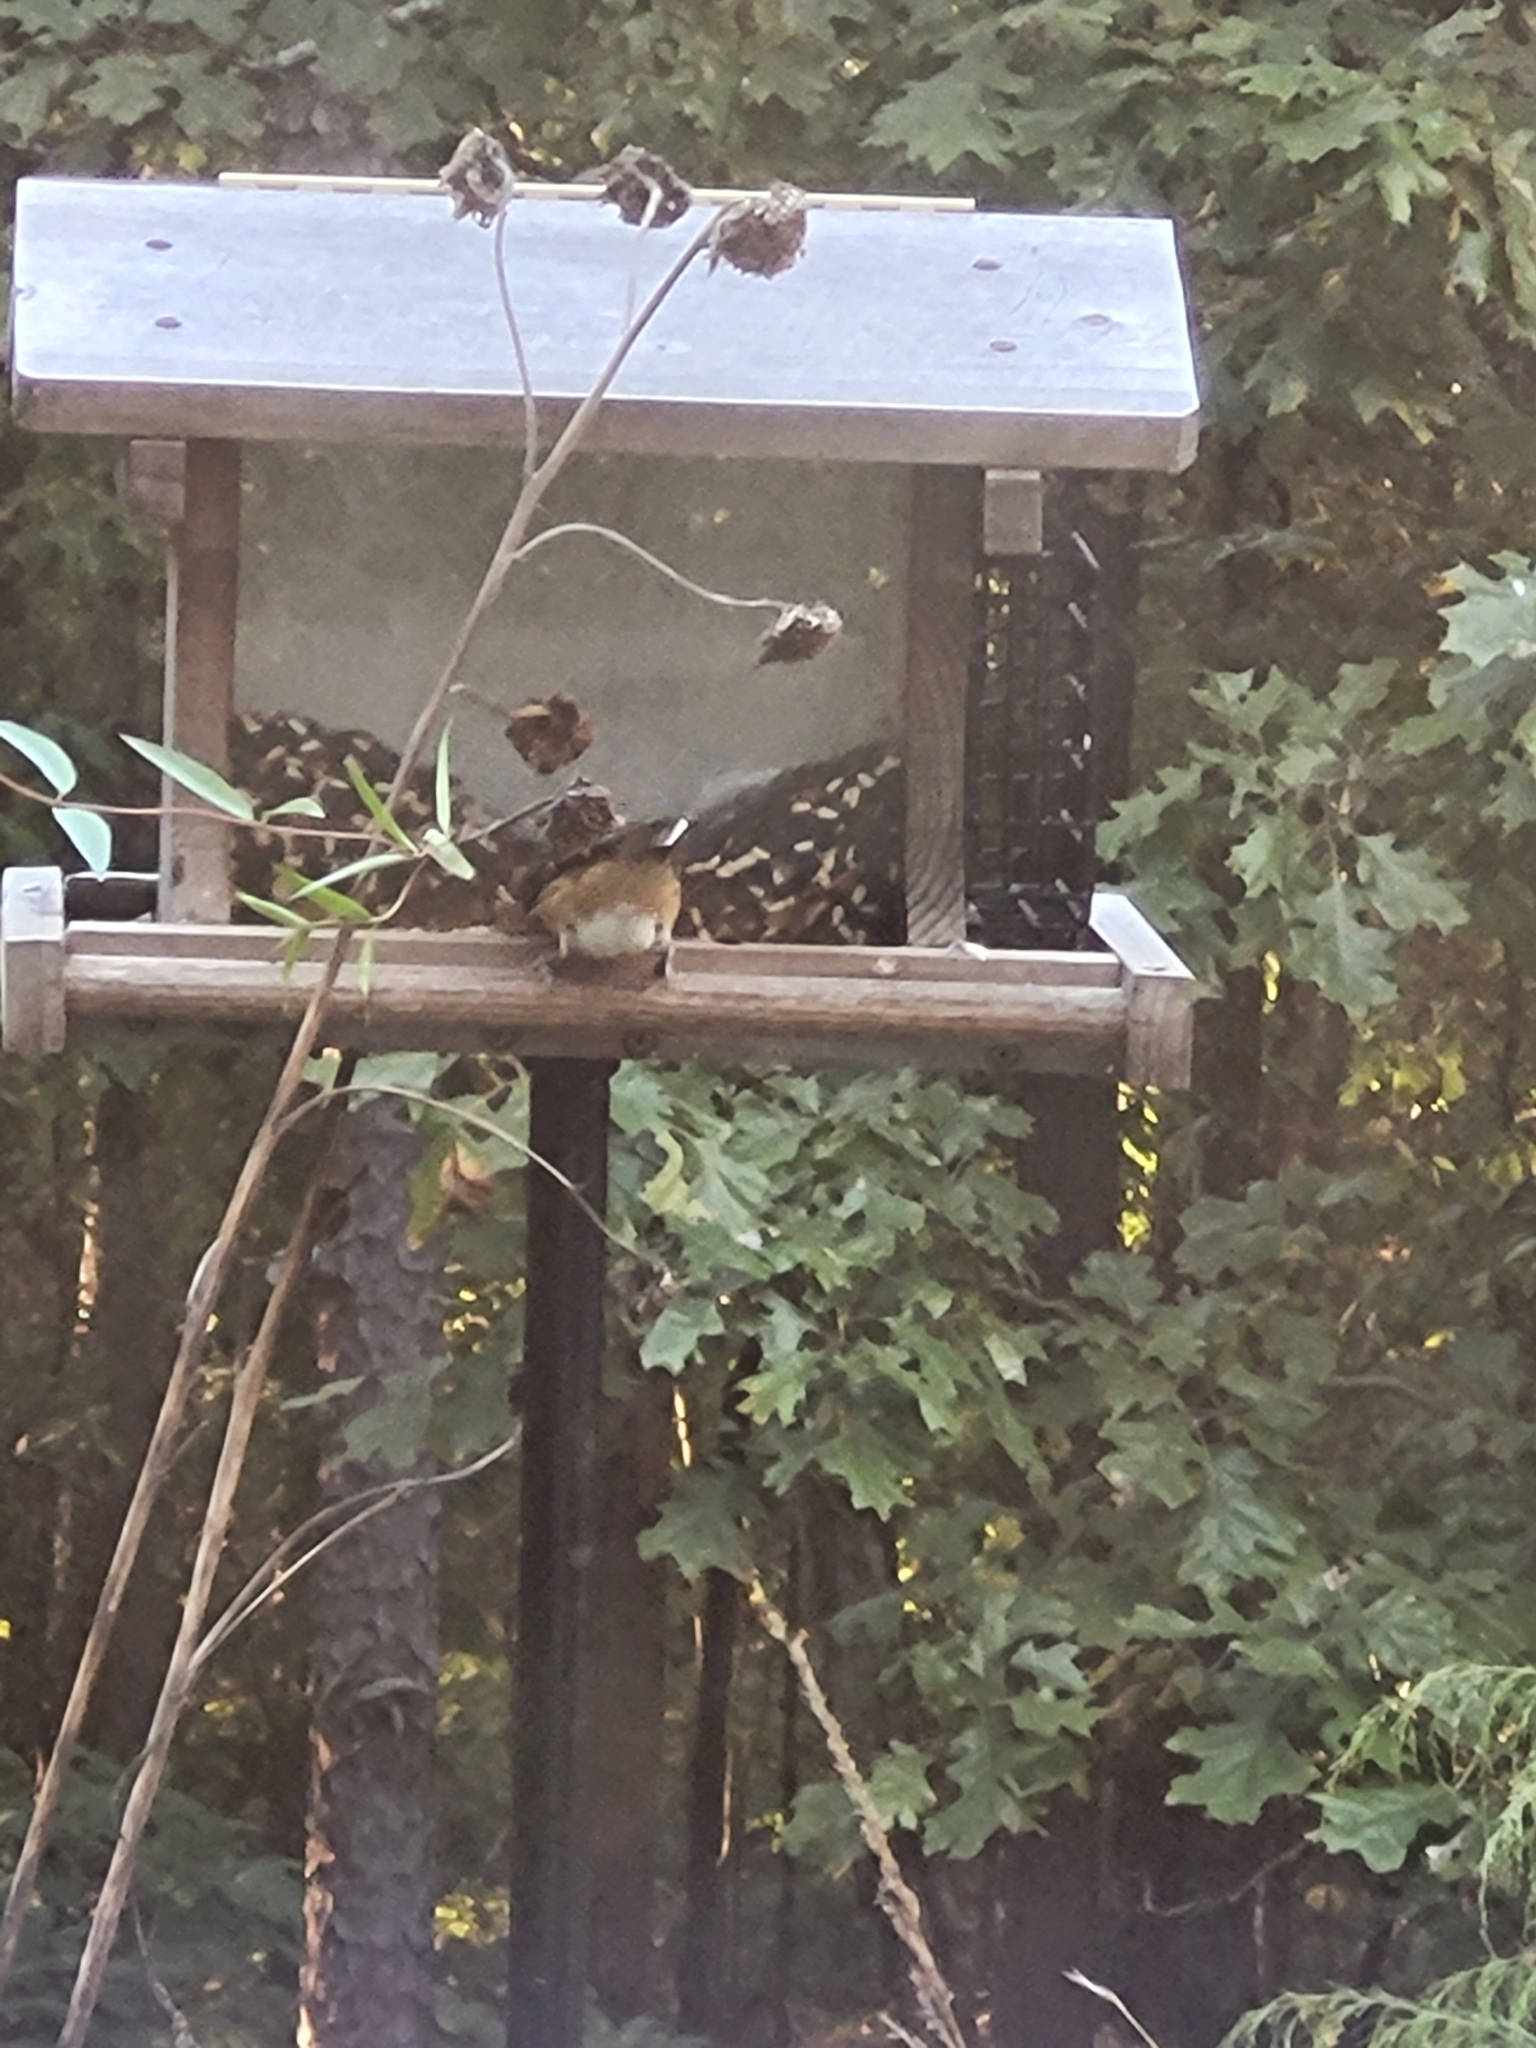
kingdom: Animalia
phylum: Chordata
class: Aves
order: Passeriformes
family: Cardinalidae
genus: Pheucticus
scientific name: Pheucticus ludovicianus
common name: Rose-breasted grosbeak
